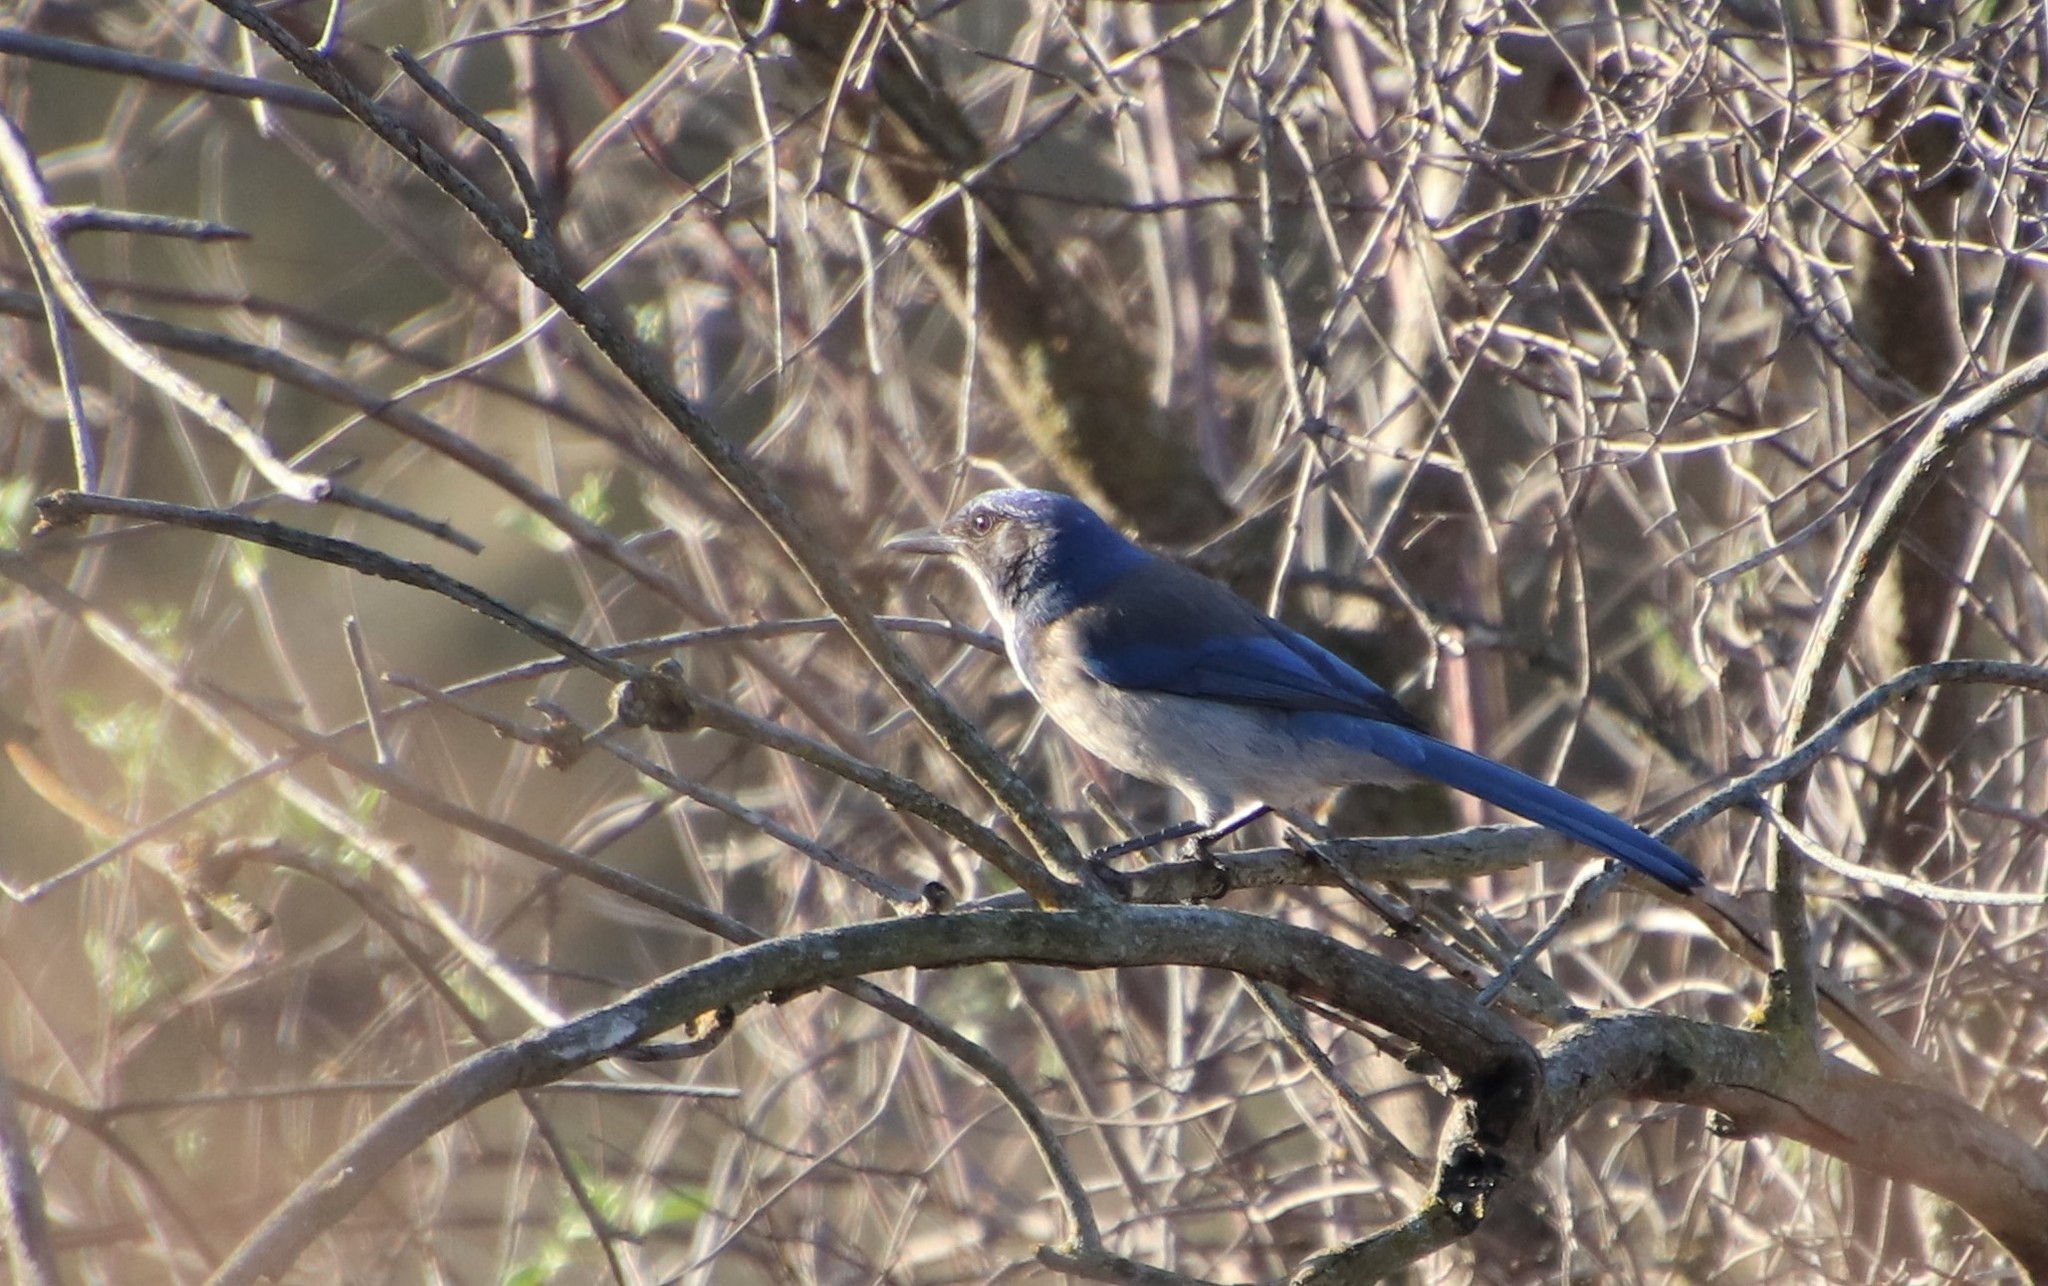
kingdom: Animalia
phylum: Chordata
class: Aves
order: Passeriformes
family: Corvidae
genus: Aphelocoma
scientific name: Aphelocoma californica
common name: California scrub-jay
